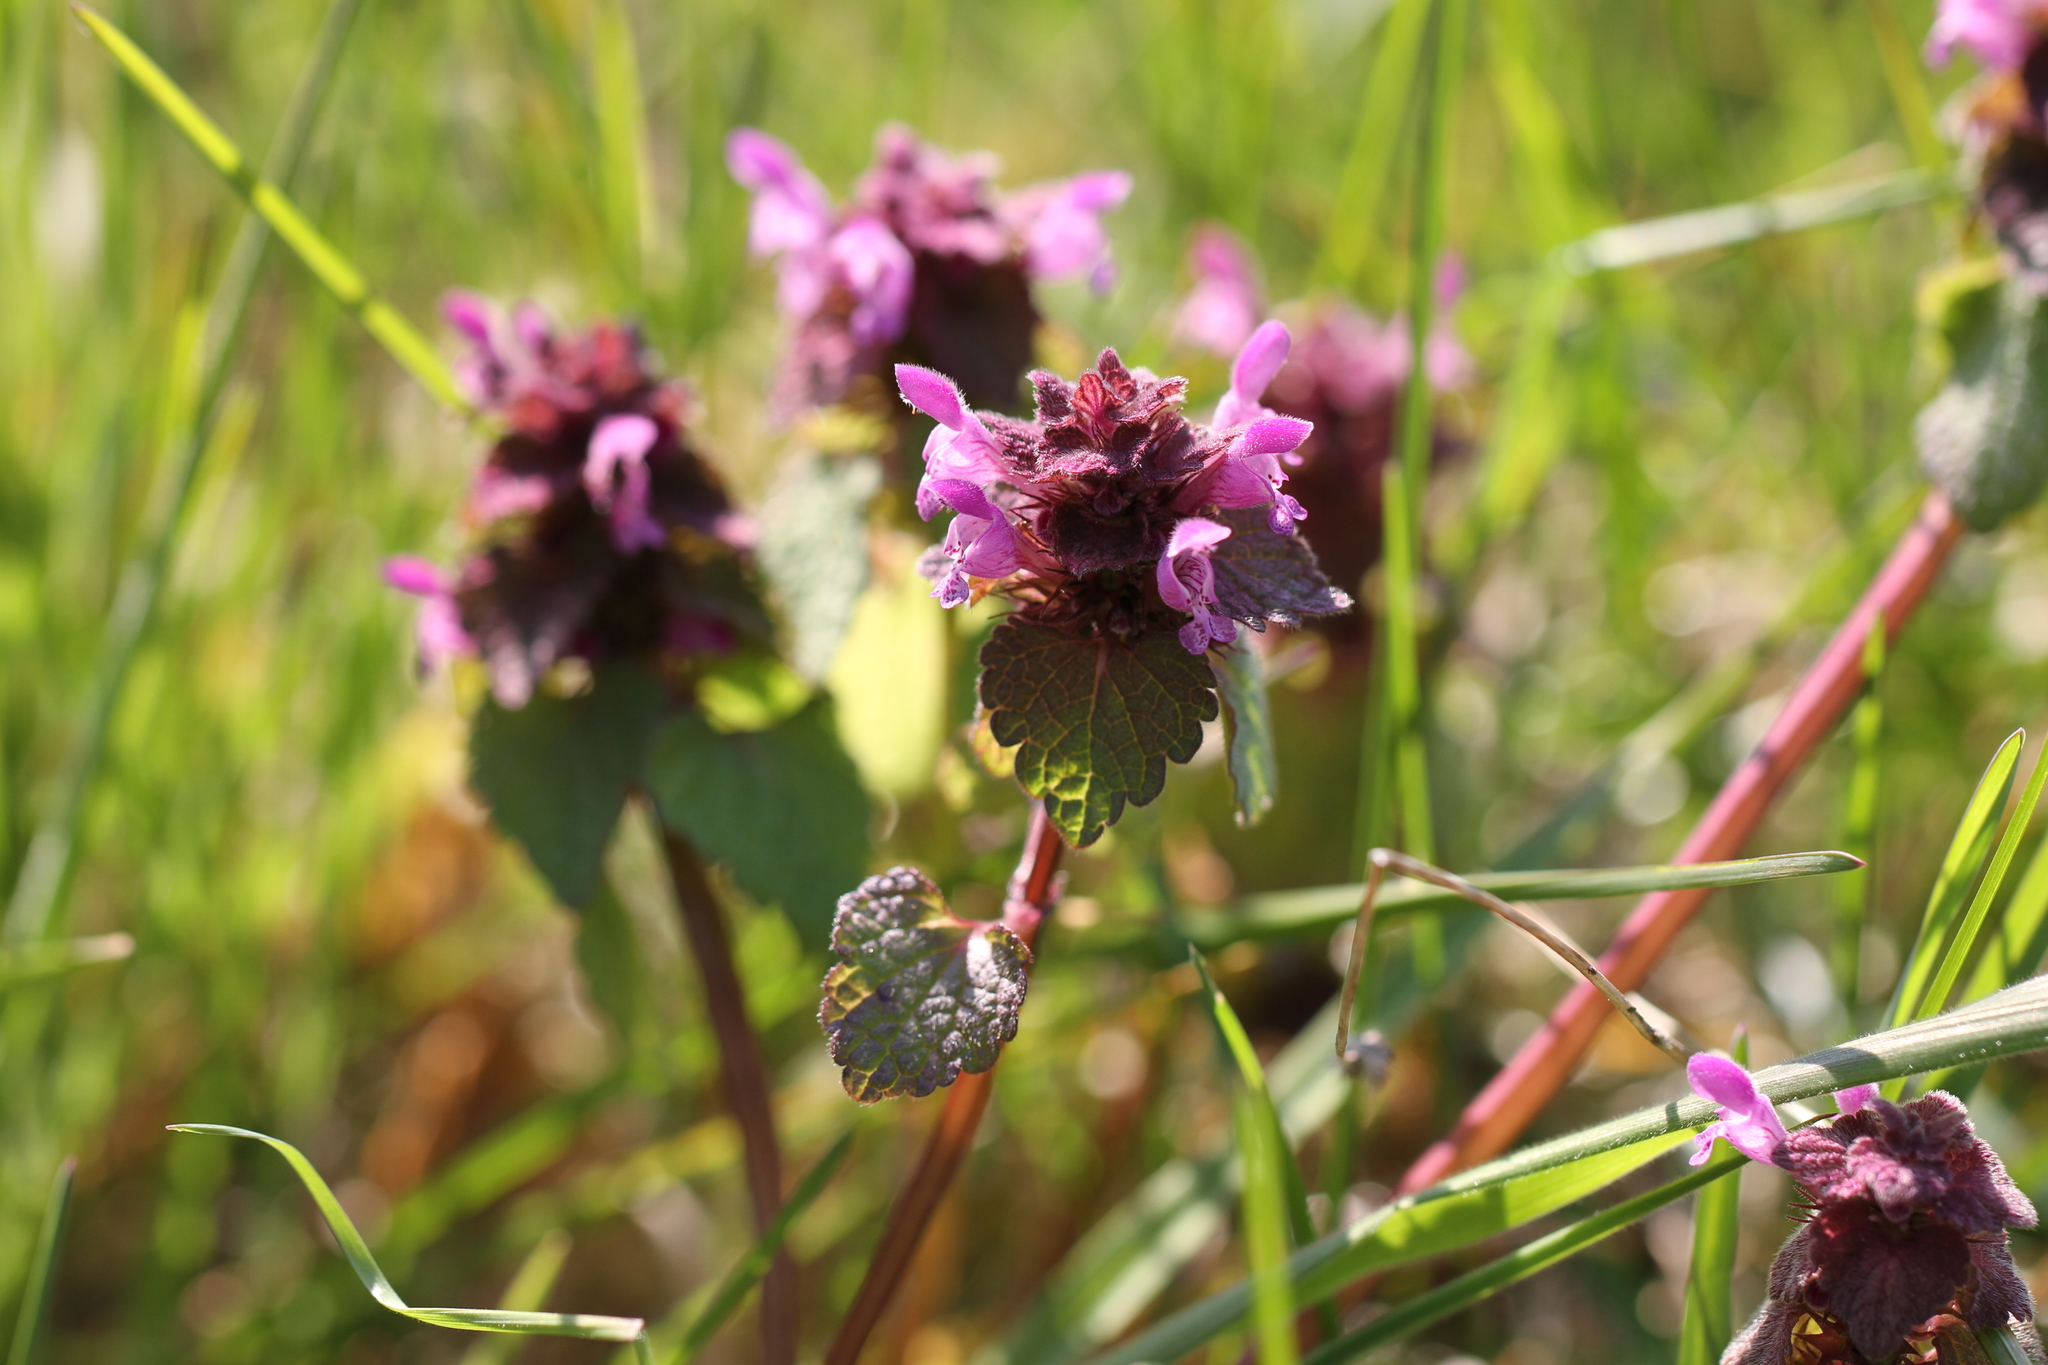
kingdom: Plantae
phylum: Tracheophyta
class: Magnoliopsida
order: Lamiales
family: Lamiaceae
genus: Lamium
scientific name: Lamium purpureum
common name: Red dead-nettle
